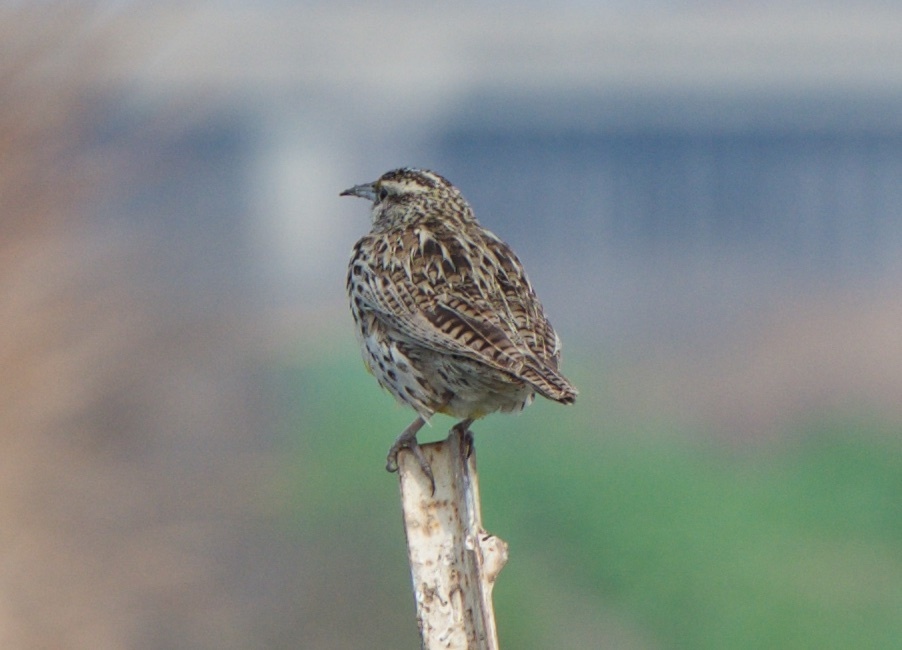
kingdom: Animalia
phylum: Chordata
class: Aves
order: Passeriformes
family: Icteridae
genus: Sturnella
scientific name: Sturnella neglecta
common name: Western meadowlark
